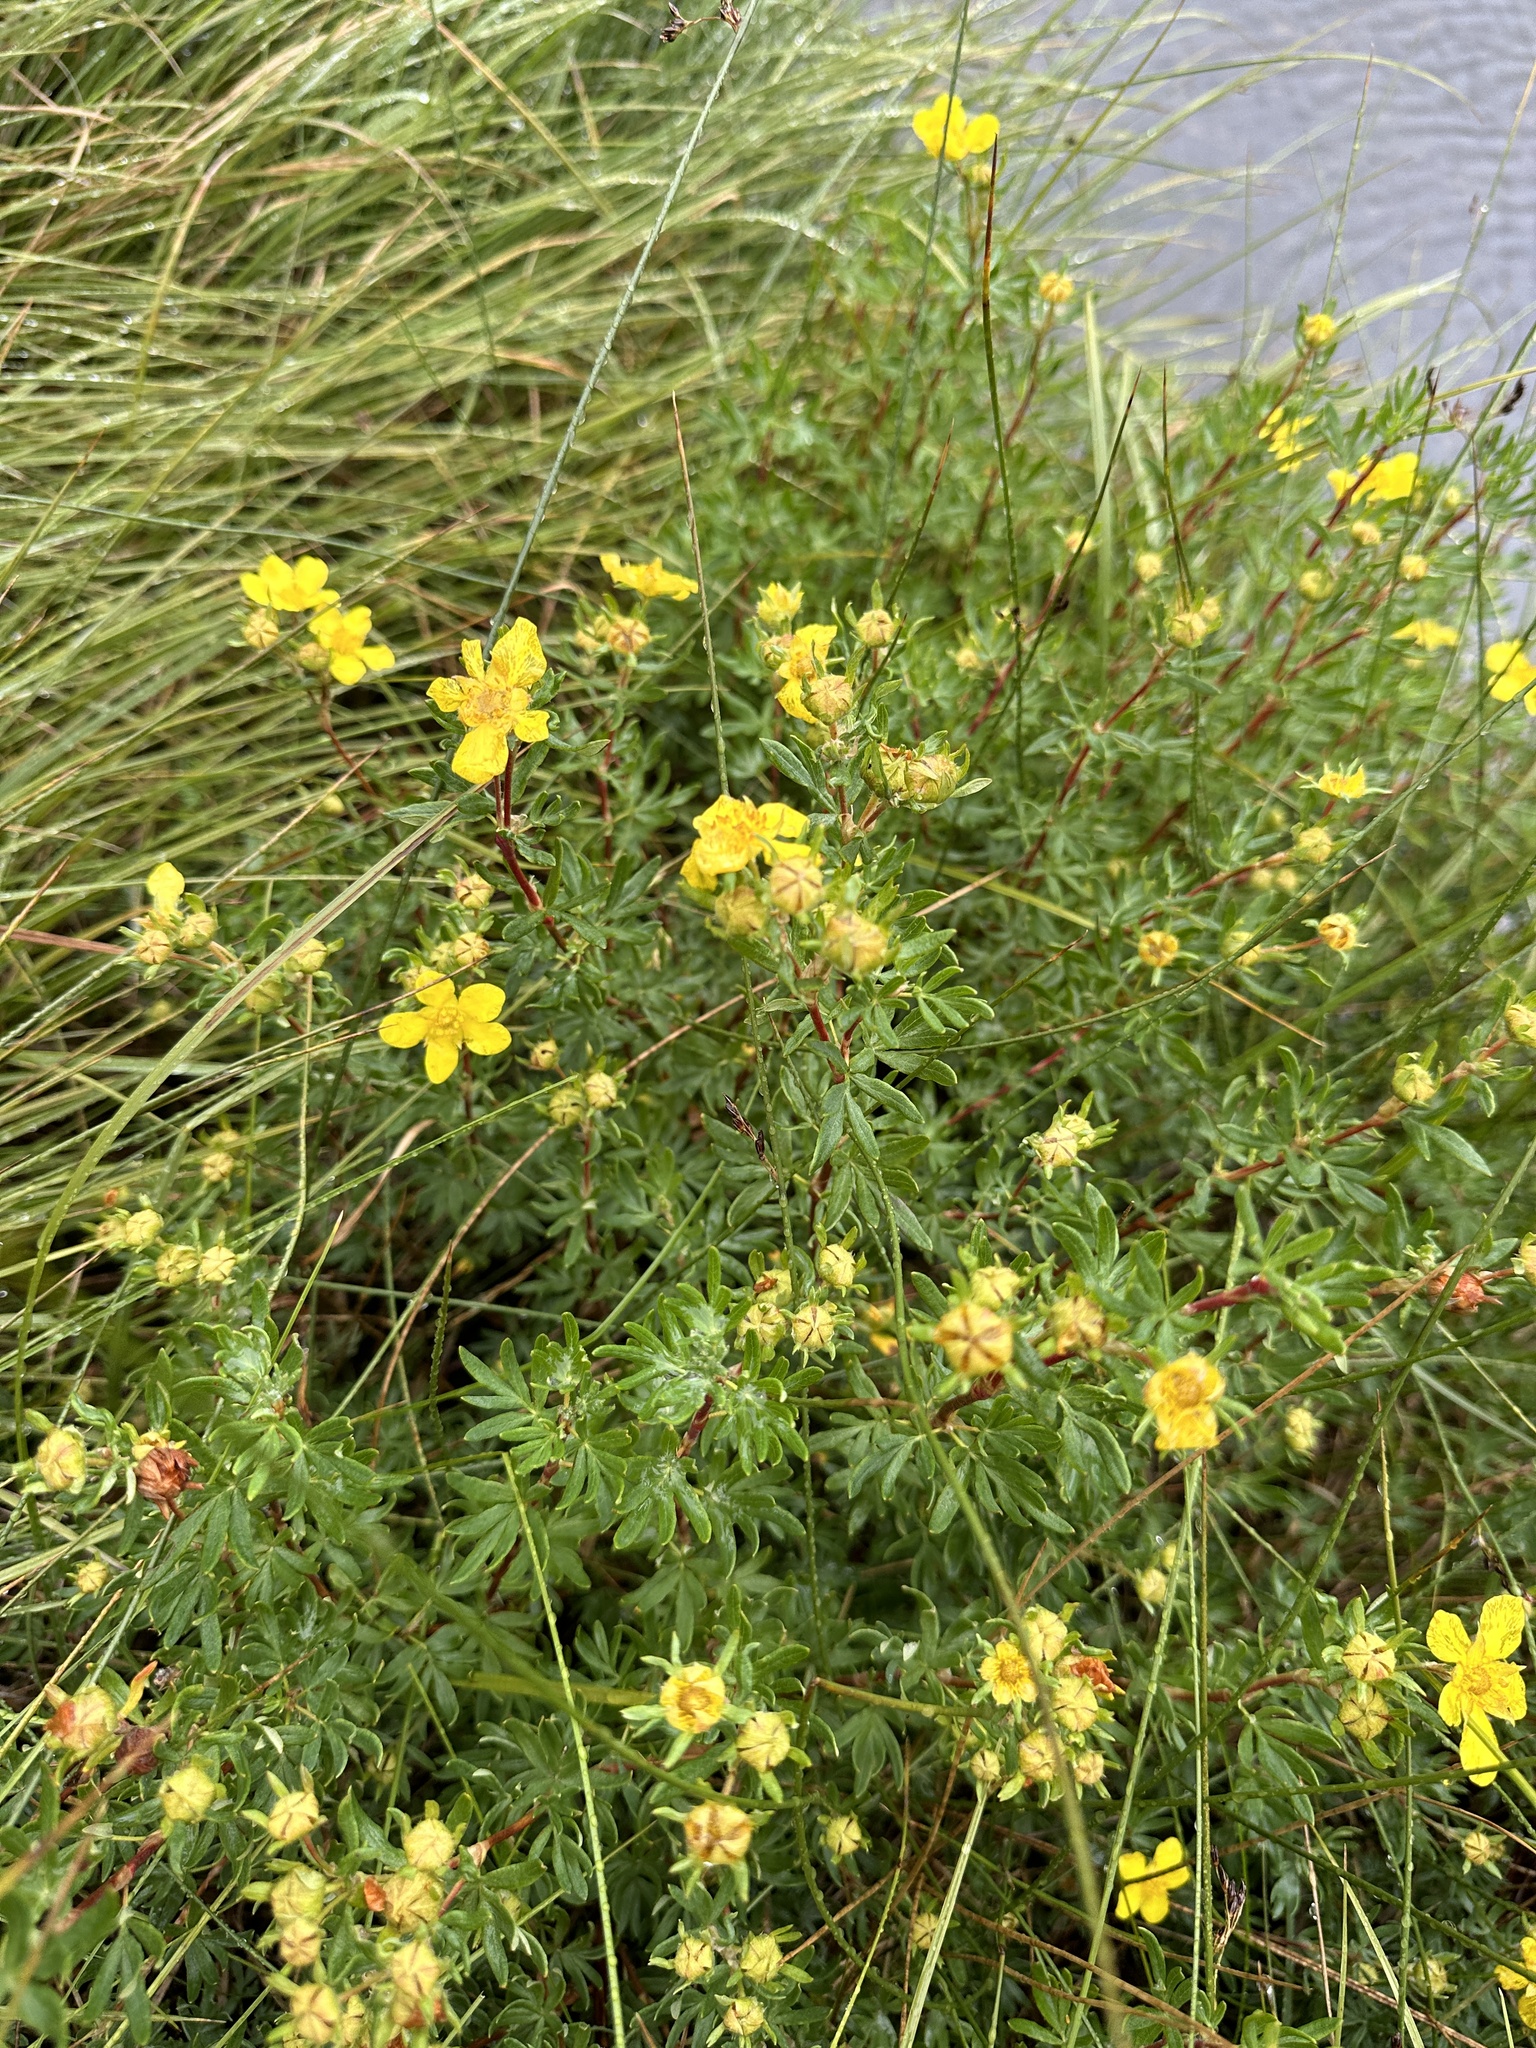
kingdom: Plantae
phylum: Tracheophyta
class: Magnoliopsida
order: Rosales
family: Rosaceae
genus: Dasiphora
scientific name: Dasiphora fruticosa
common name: Shrubby cinquefoil
